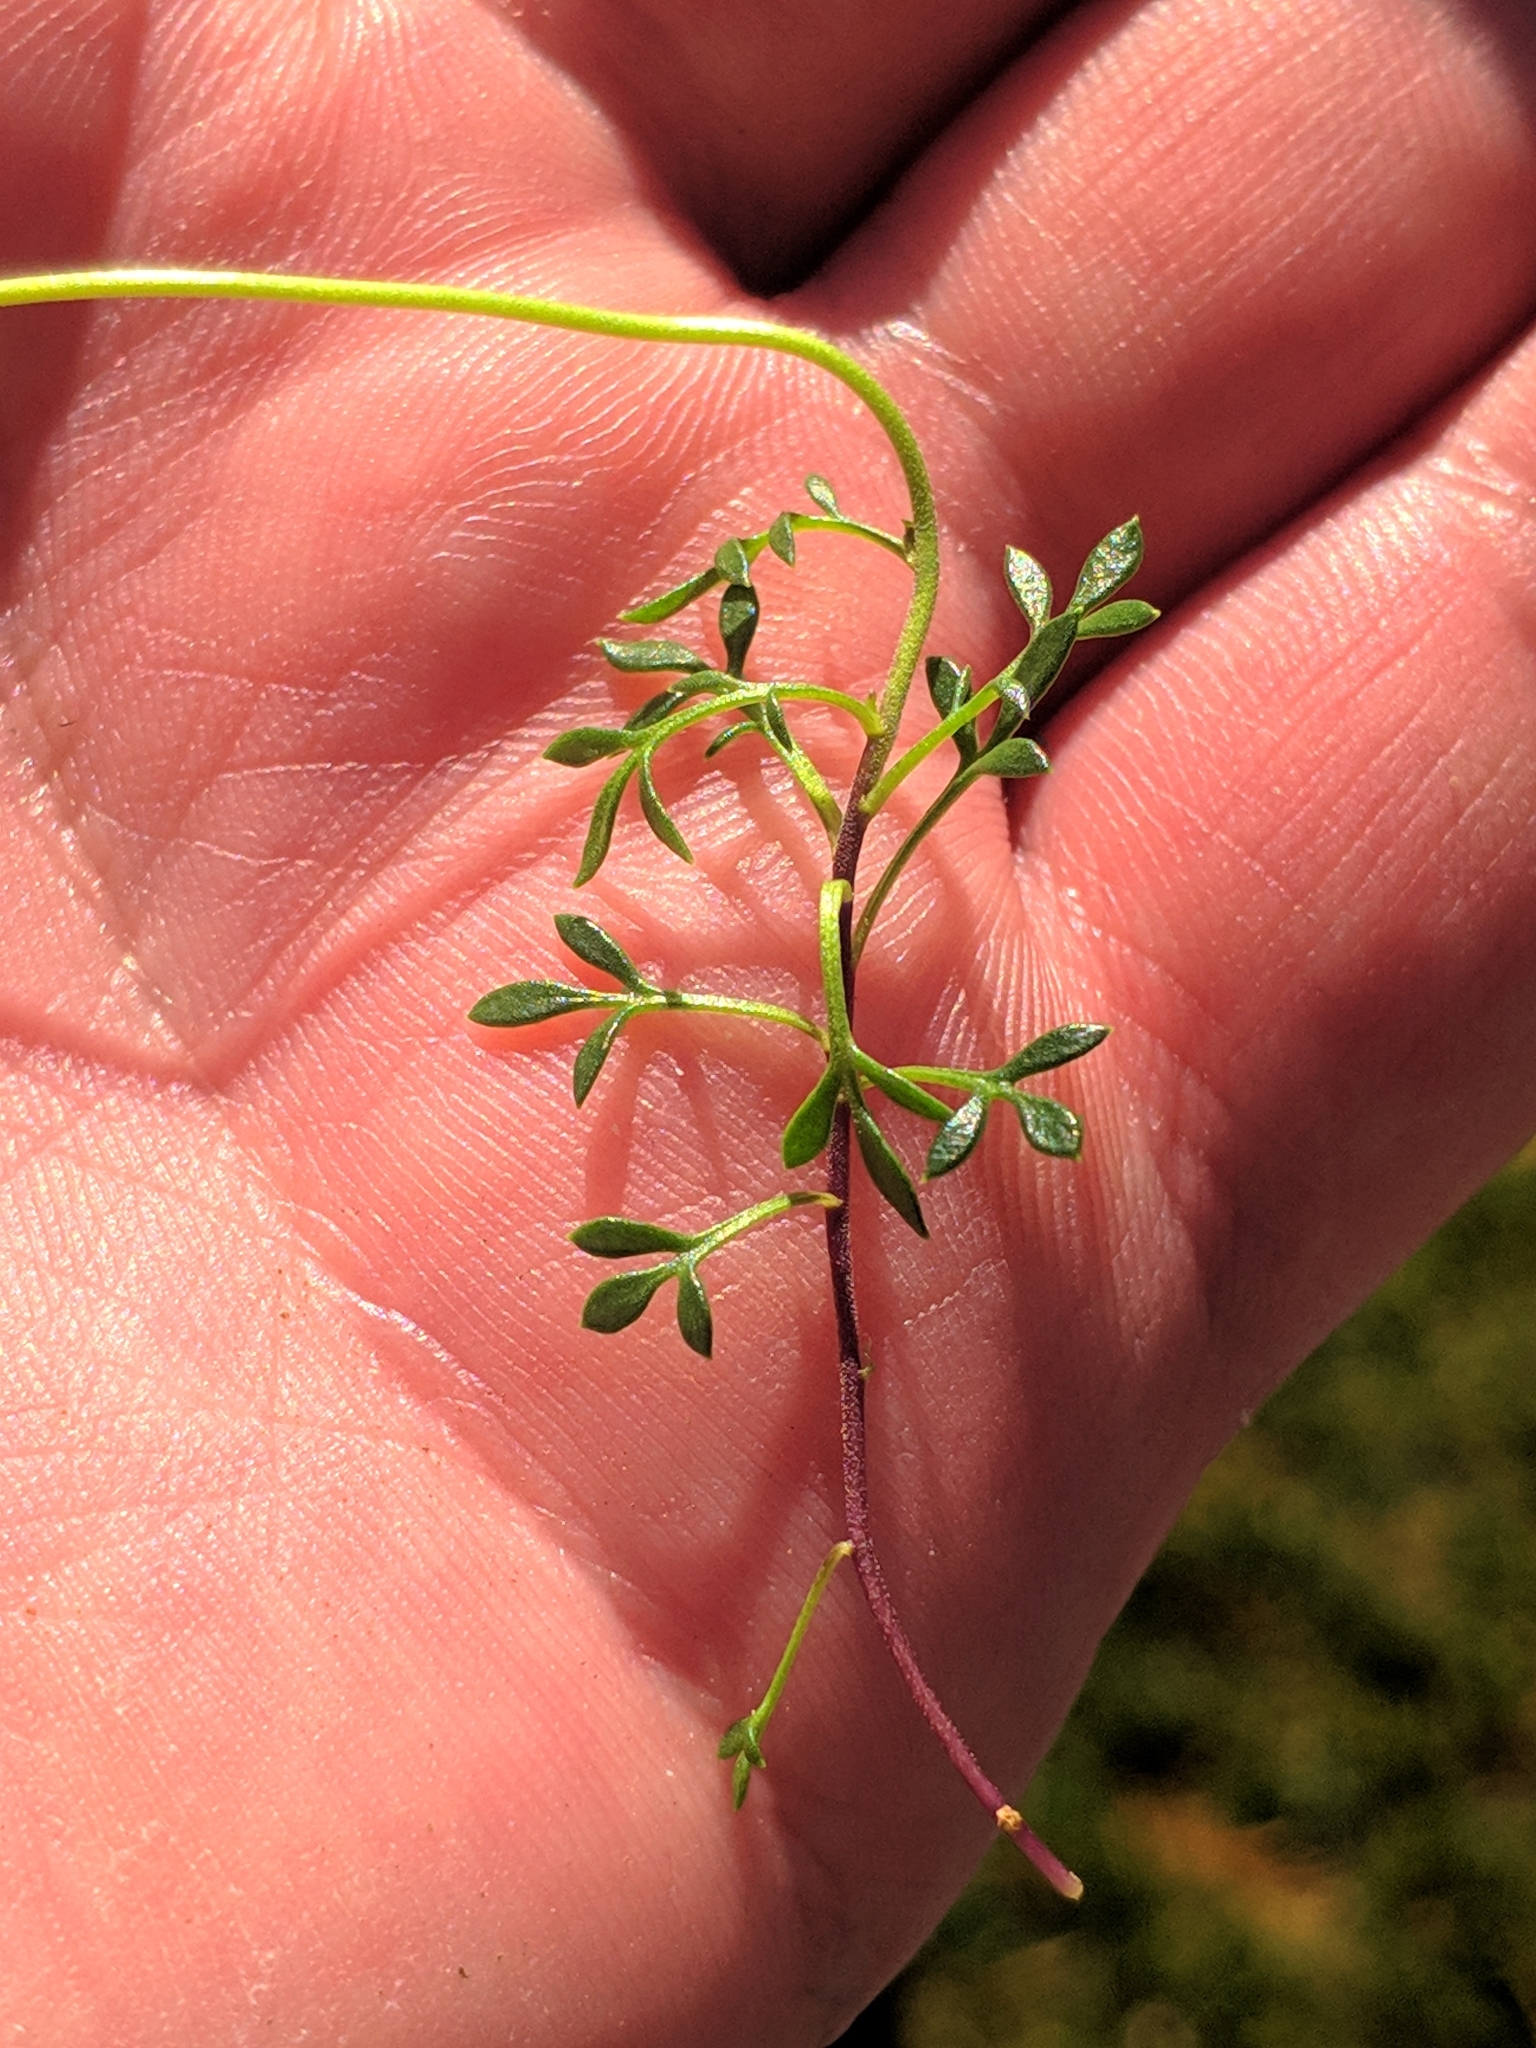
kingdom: Plantae
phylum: Tracheophyta
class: Magnoliopsida
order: Brassicales
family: Brassicaceae
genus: Hornungia
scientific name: Hornungia alpina
